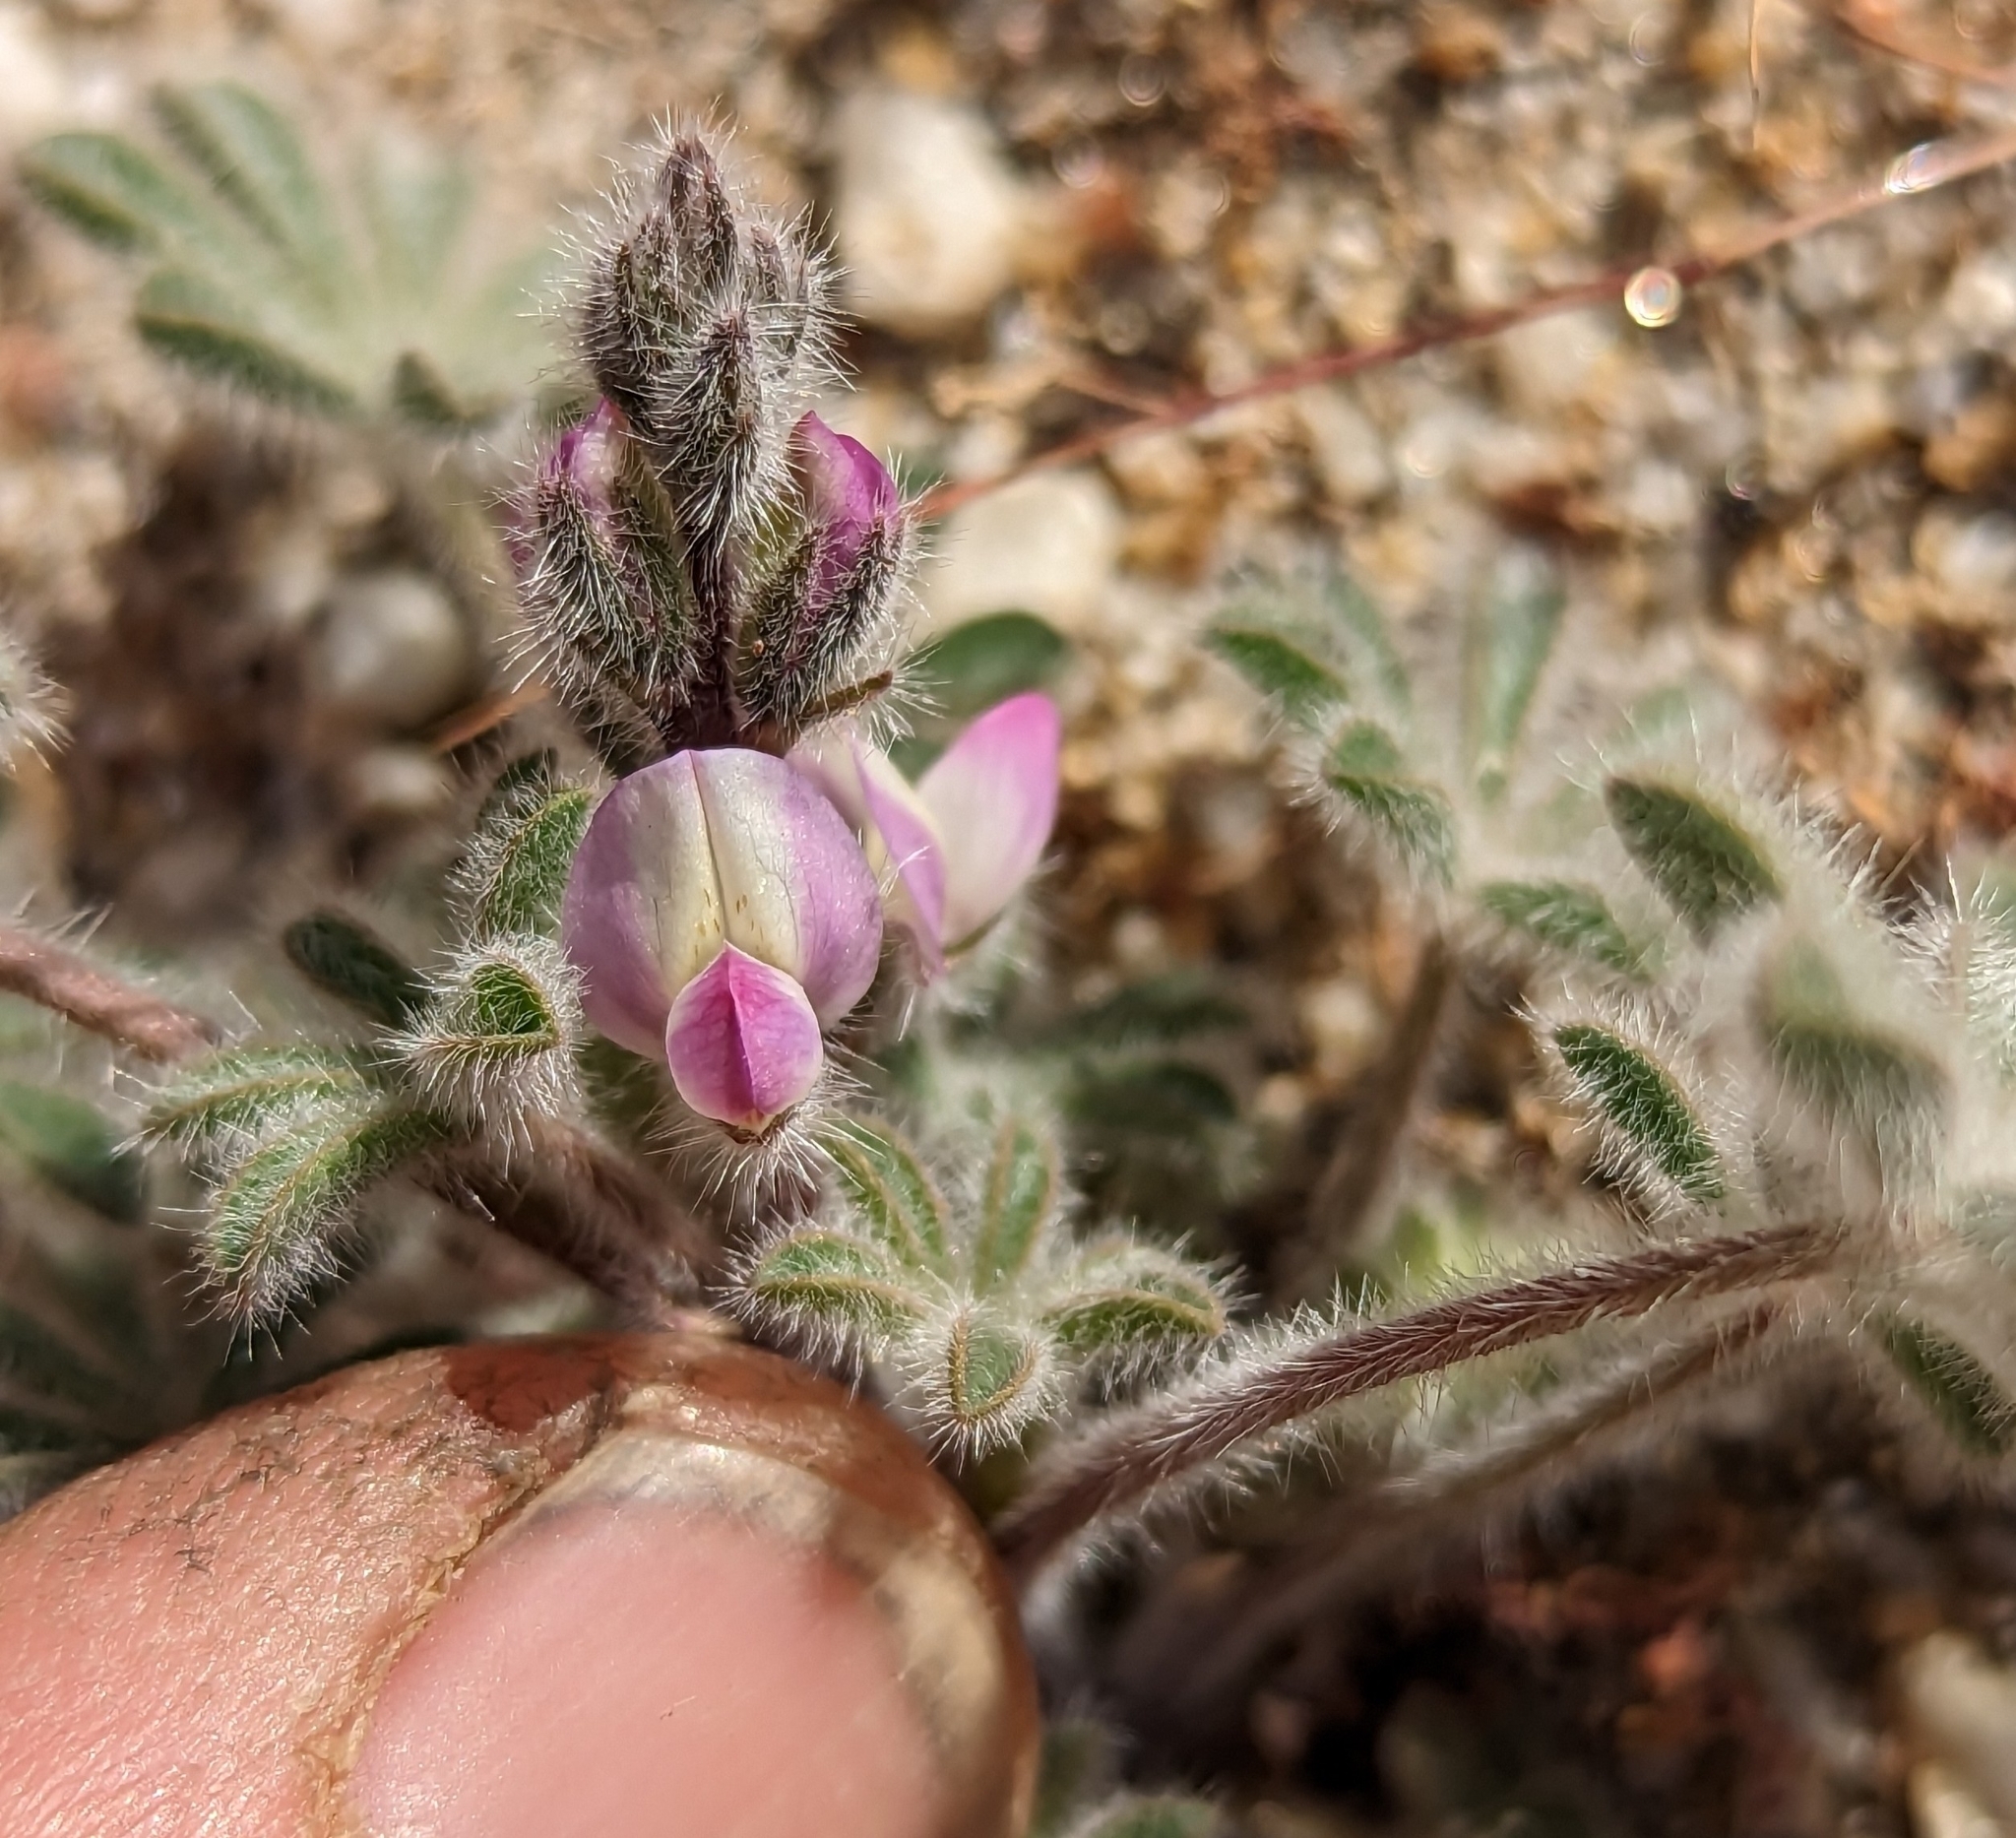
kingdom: Plantae
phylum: Tracheophyta
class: Magnoliopsida
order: Fabales
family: Fabaceae
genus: Lupinus
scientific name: Lupinus concinnus
